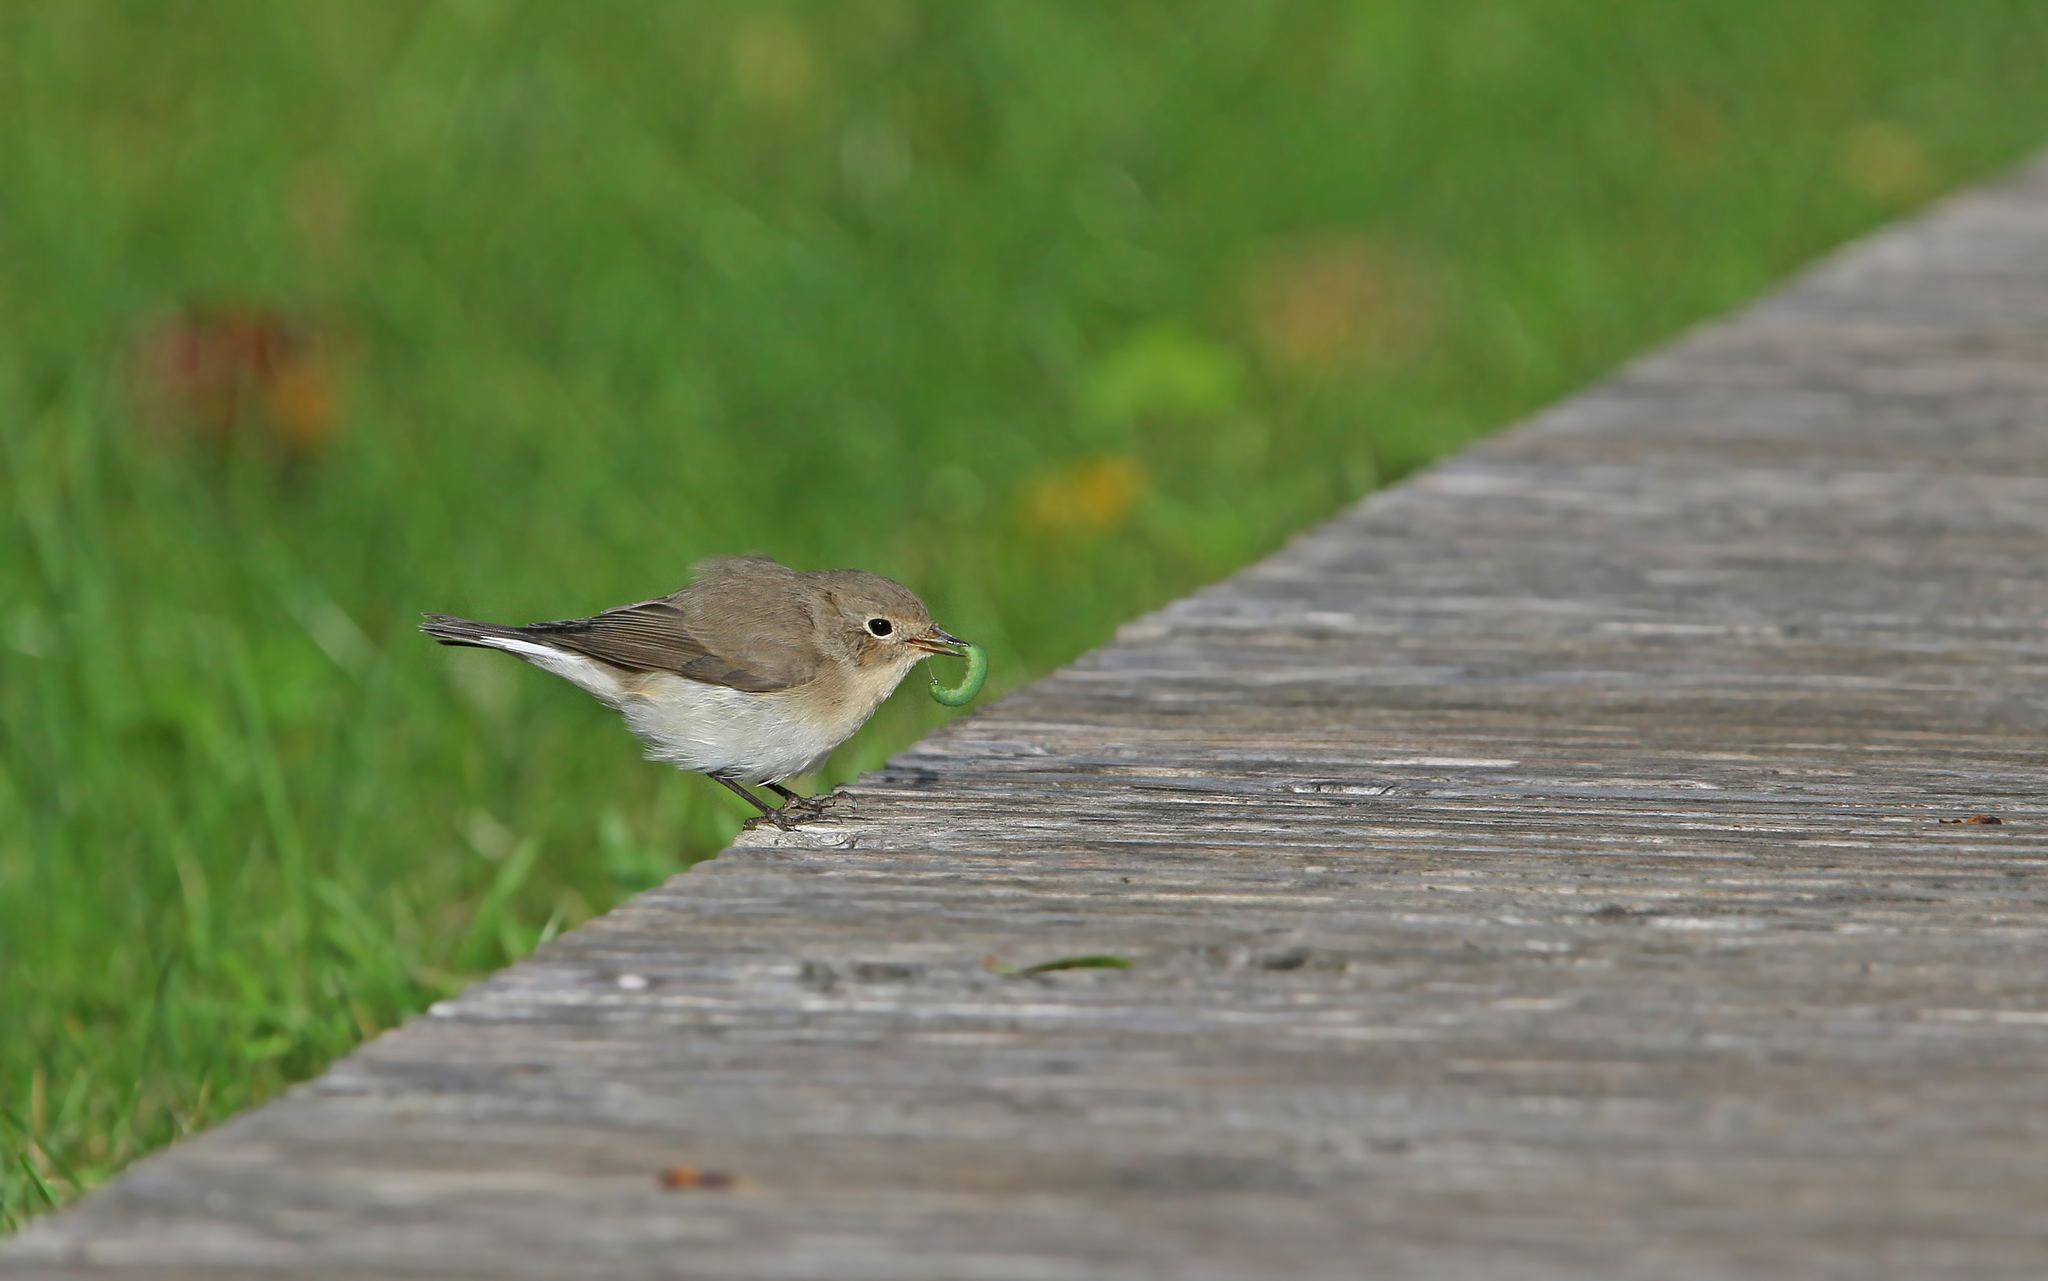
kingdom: Animalia
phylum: Chordata
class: Aves
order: Passeriformes
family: Muscicapidae
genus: Ficedula
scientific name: Ficedula parva
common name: Red-breasted flycatcher
